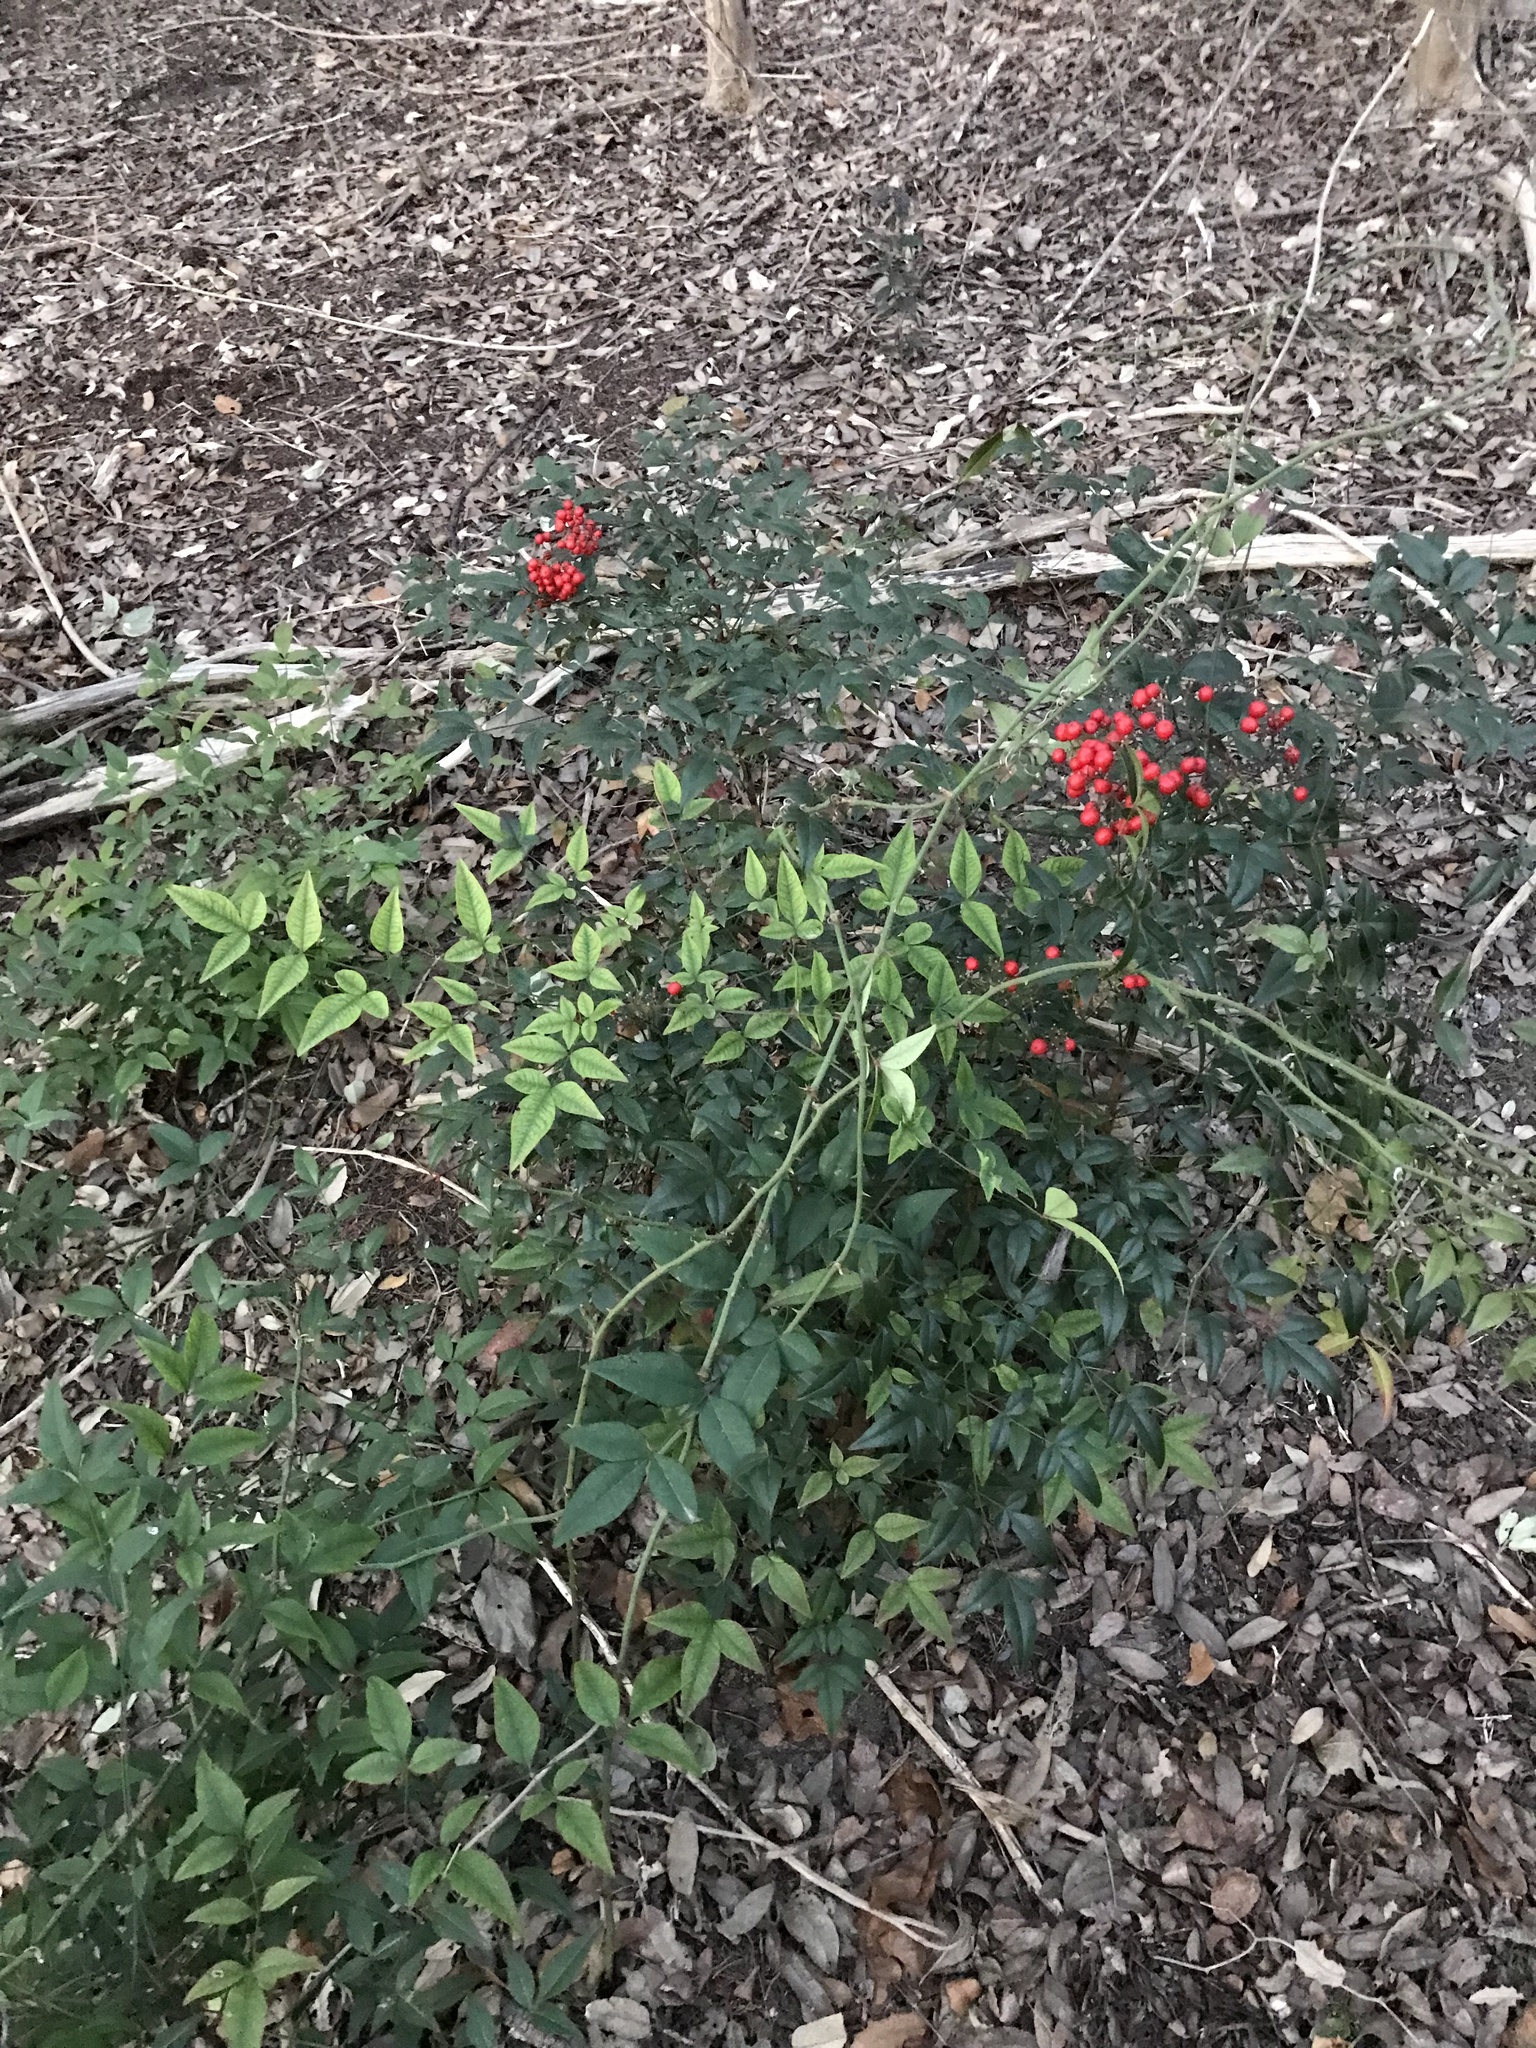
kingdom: Plantae
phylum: Tracheophyta
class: Magnoliopsida
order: Ranunculales
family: Berberidaceae
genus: Nandina
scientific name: Nandina domestica
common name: Sacred bamboo
